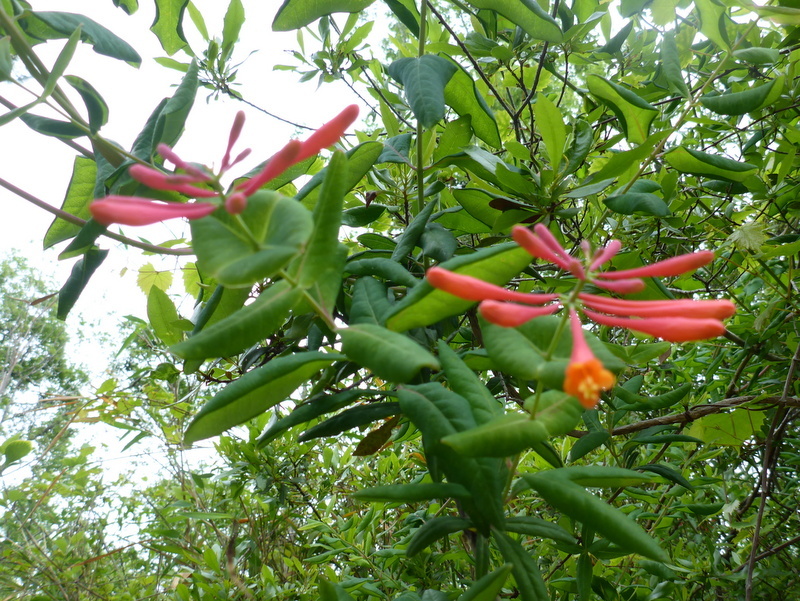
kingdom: Plantae
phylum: Tracheophyta
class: Magnoliopsida
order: Dipsacales
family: Caprifoliaceae
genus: Lonicera
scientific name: Lonicera sempervirens
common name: Coral honeysuckle
